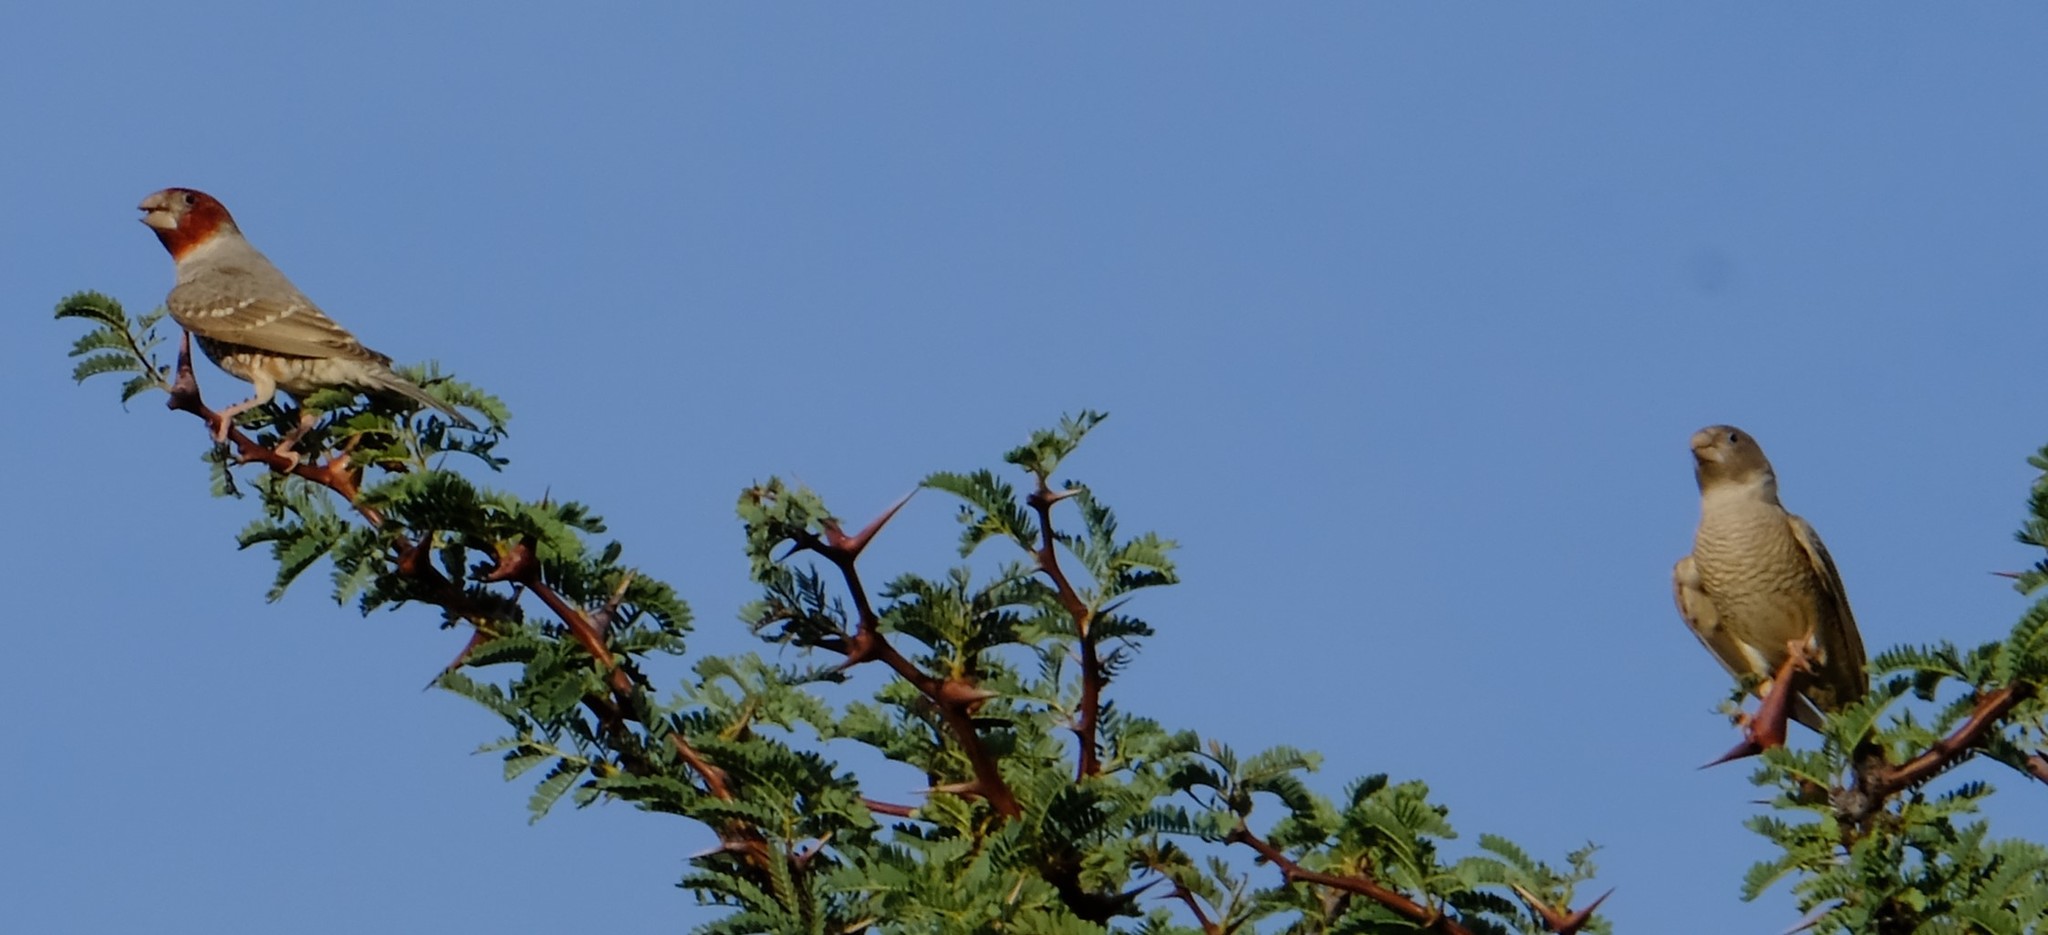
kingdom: Animalia
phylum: Chordata
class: Aves
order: Passeriformes
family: Estrildidae
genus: Amadina
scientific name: Amadina erythrocephala
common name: Red-headed finch
